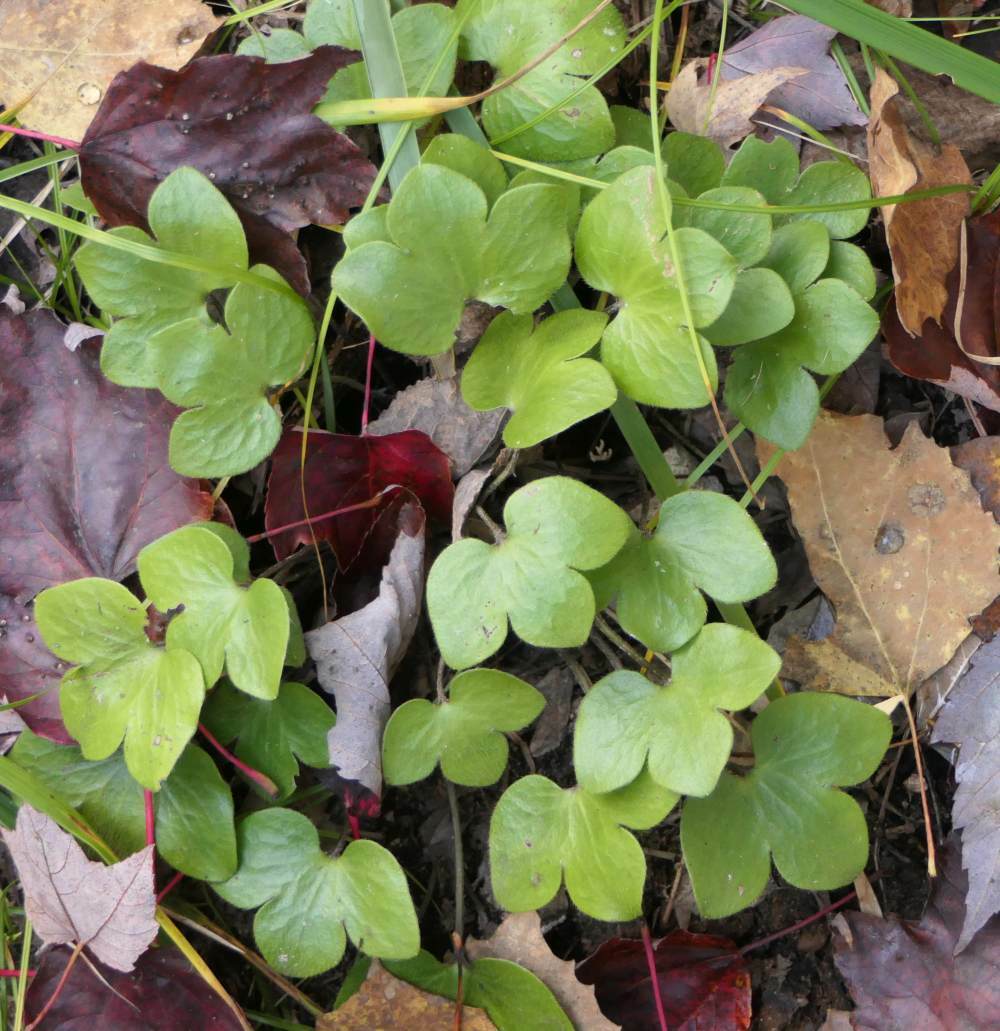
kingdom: Plantae
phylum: Tracheophyta
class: Magnoliopsida
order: Ranunculales
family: Ranunculaceae
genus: Hepatica
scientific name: Hepatica americana
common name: American hepatica
